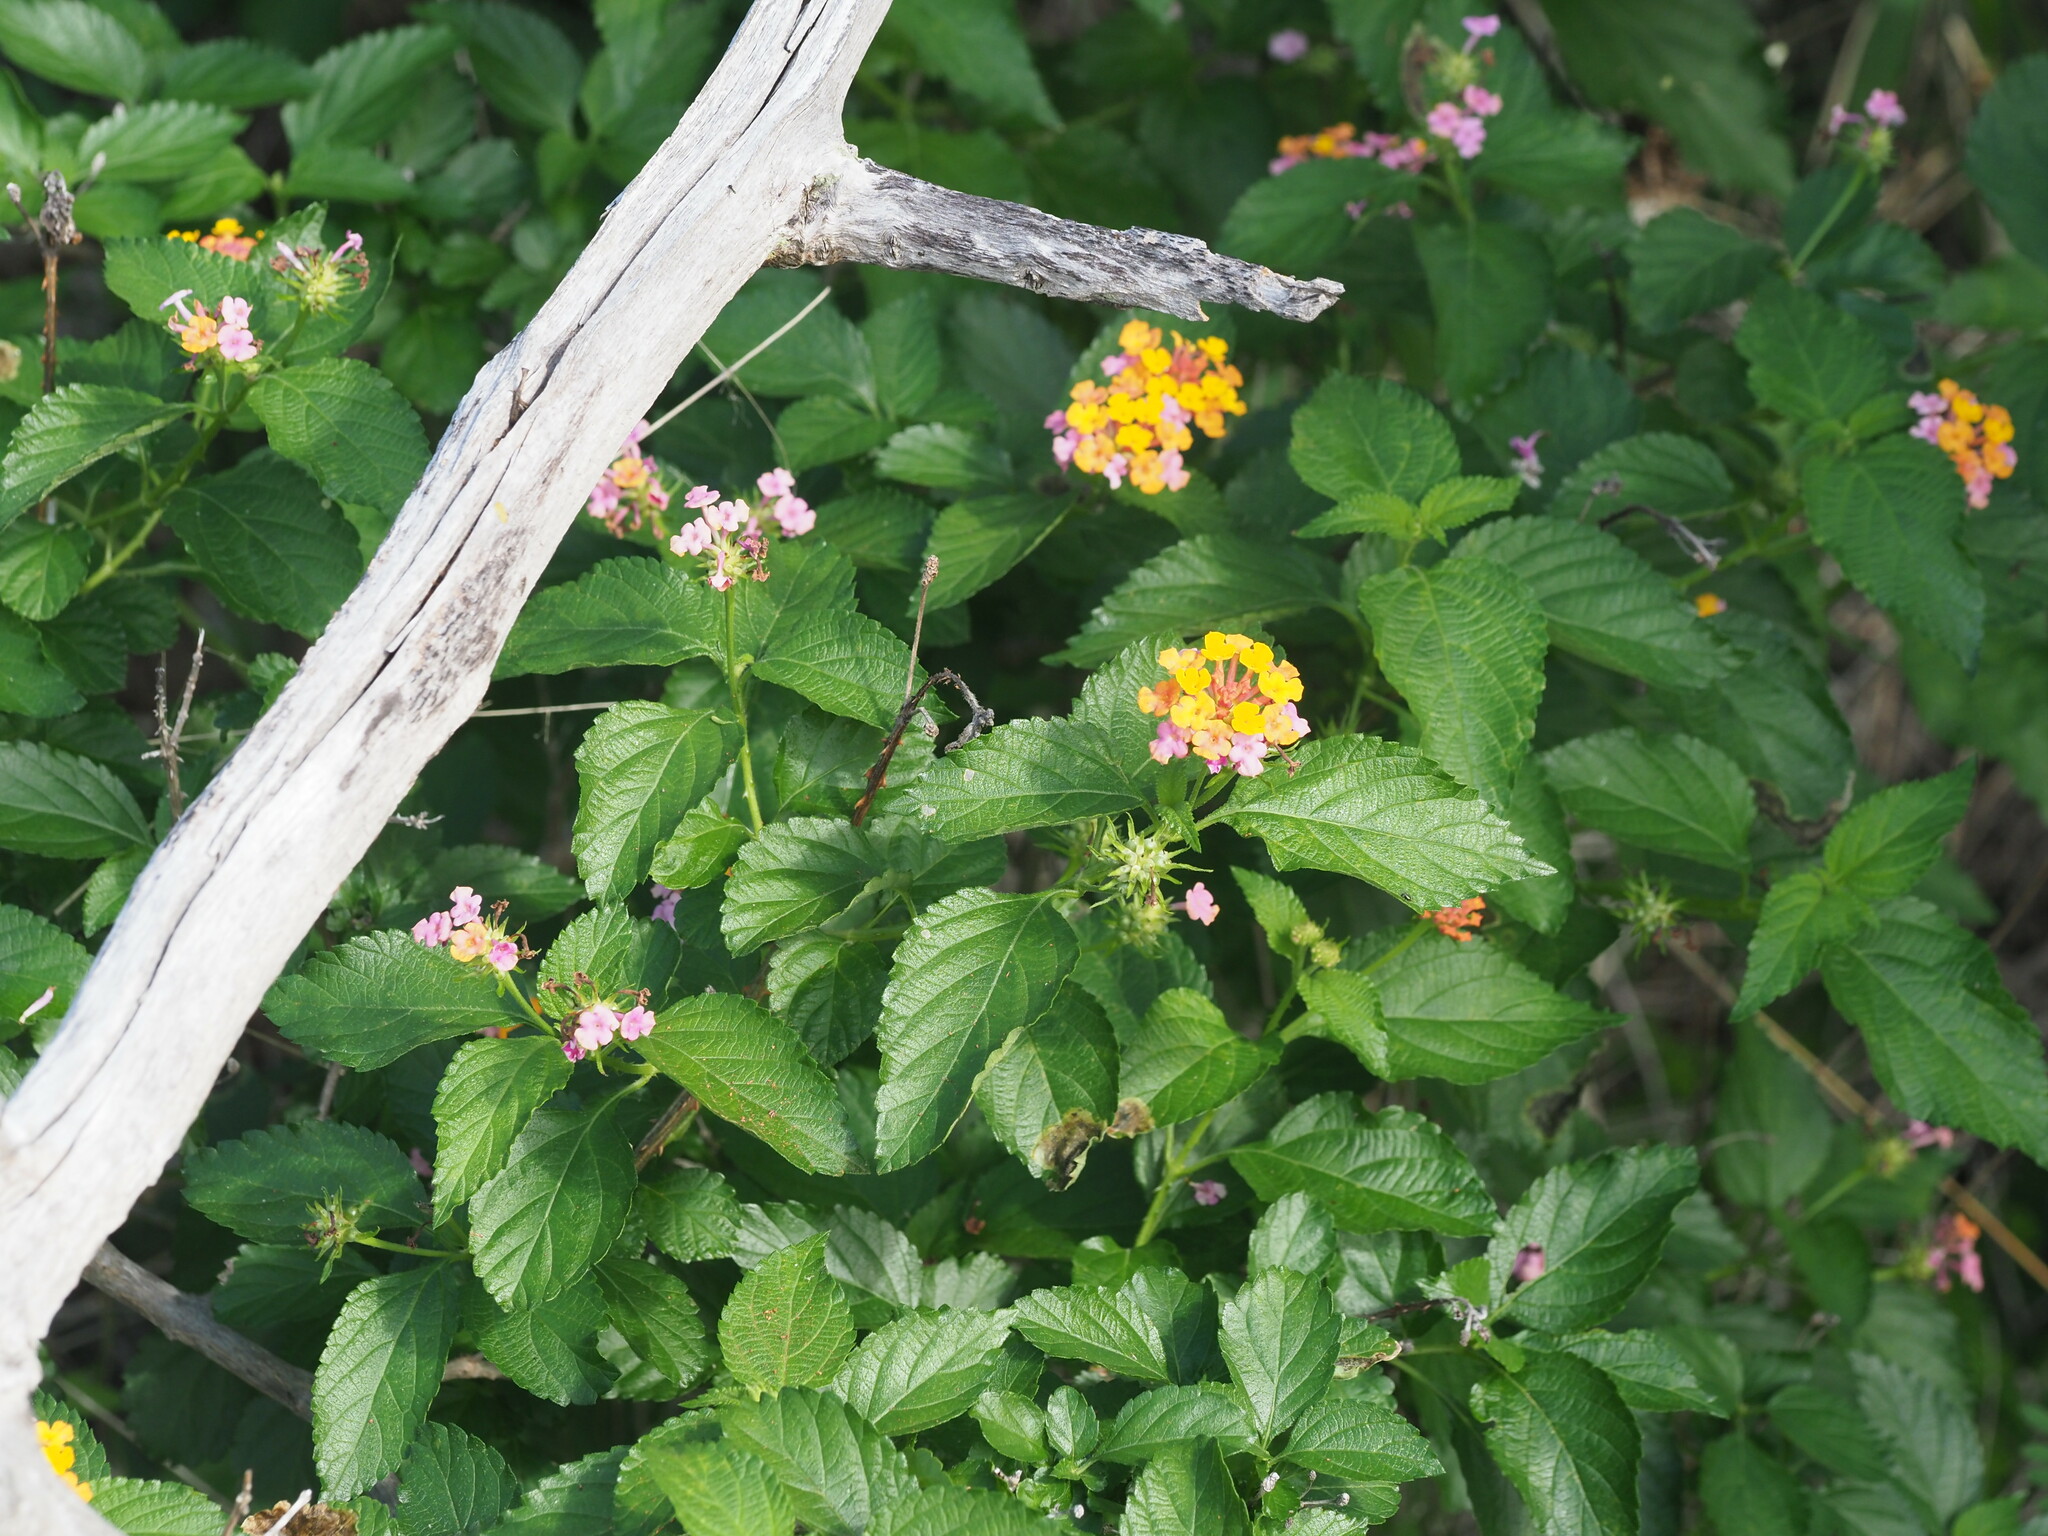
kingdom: Plantae
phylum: Tracheophyta
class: Magnoliopsida
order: Lamiales
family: Verbenaceae
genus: Lantana
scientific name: Lantana camara
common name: Lantana
